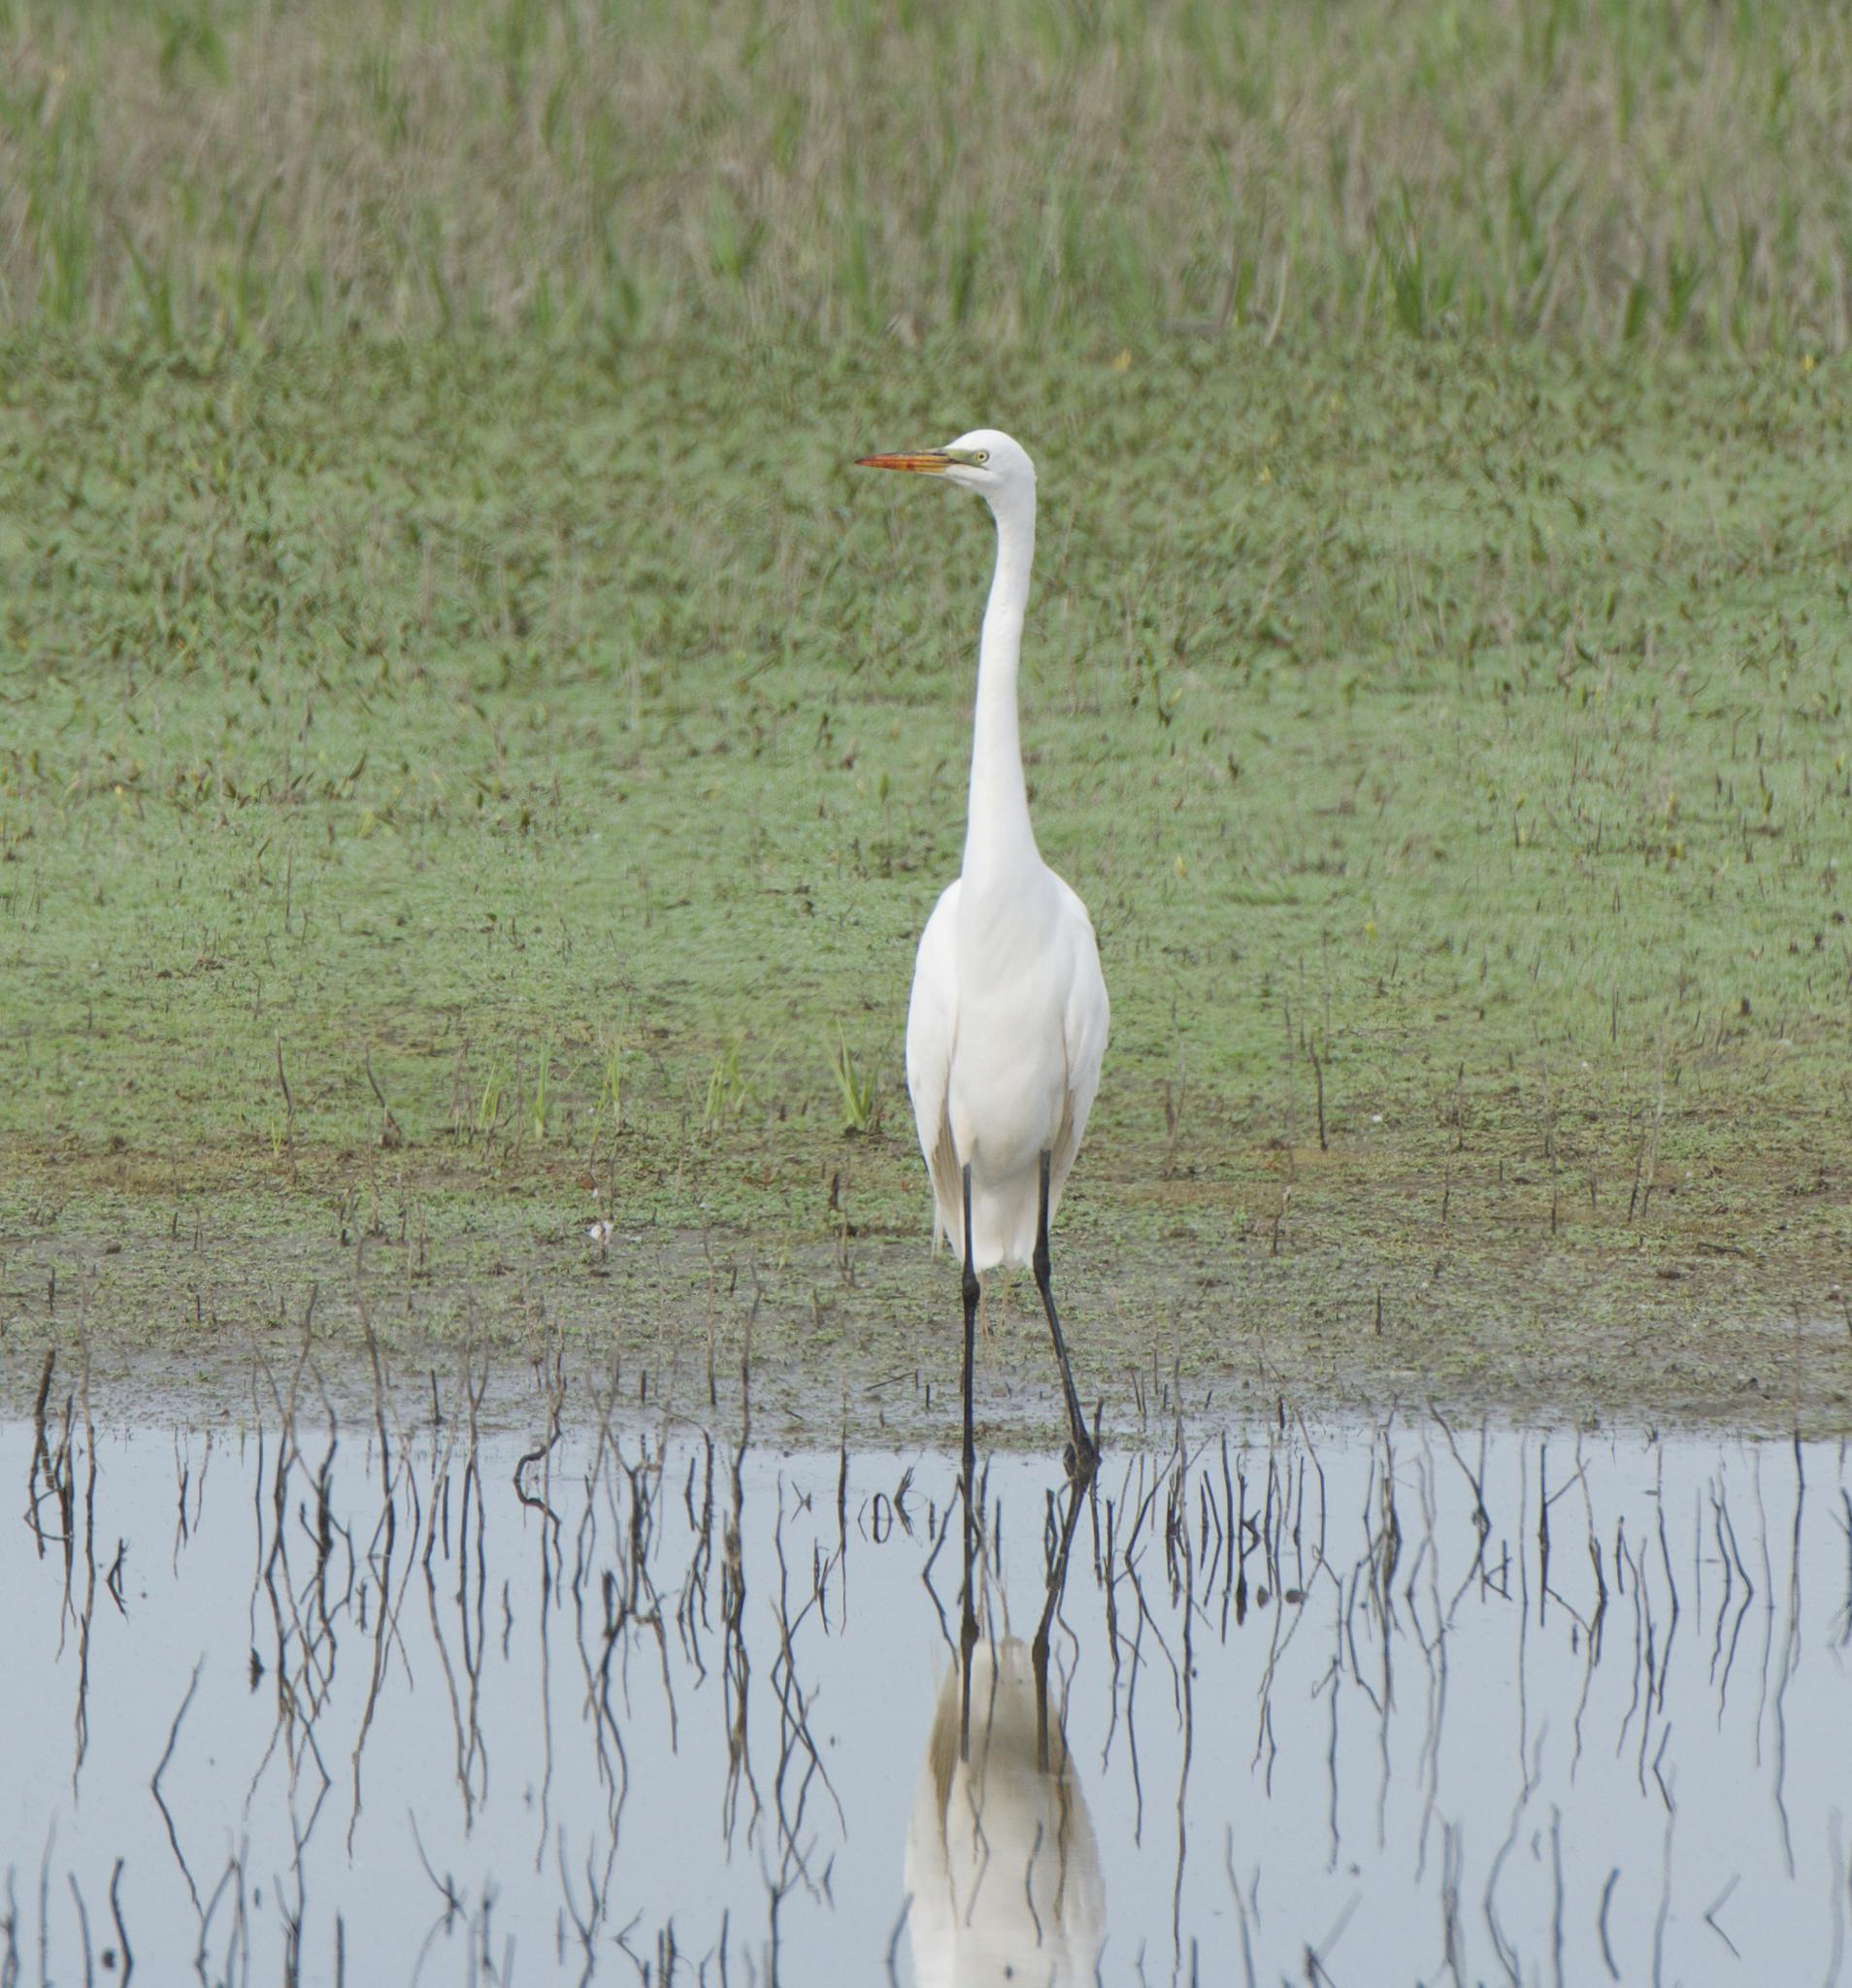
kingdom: Animalia
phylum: Chordata
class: Aves
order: Pelecaniformes
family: Ardeidae
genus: Ardea
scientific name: Ardea alba
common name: Great egret
